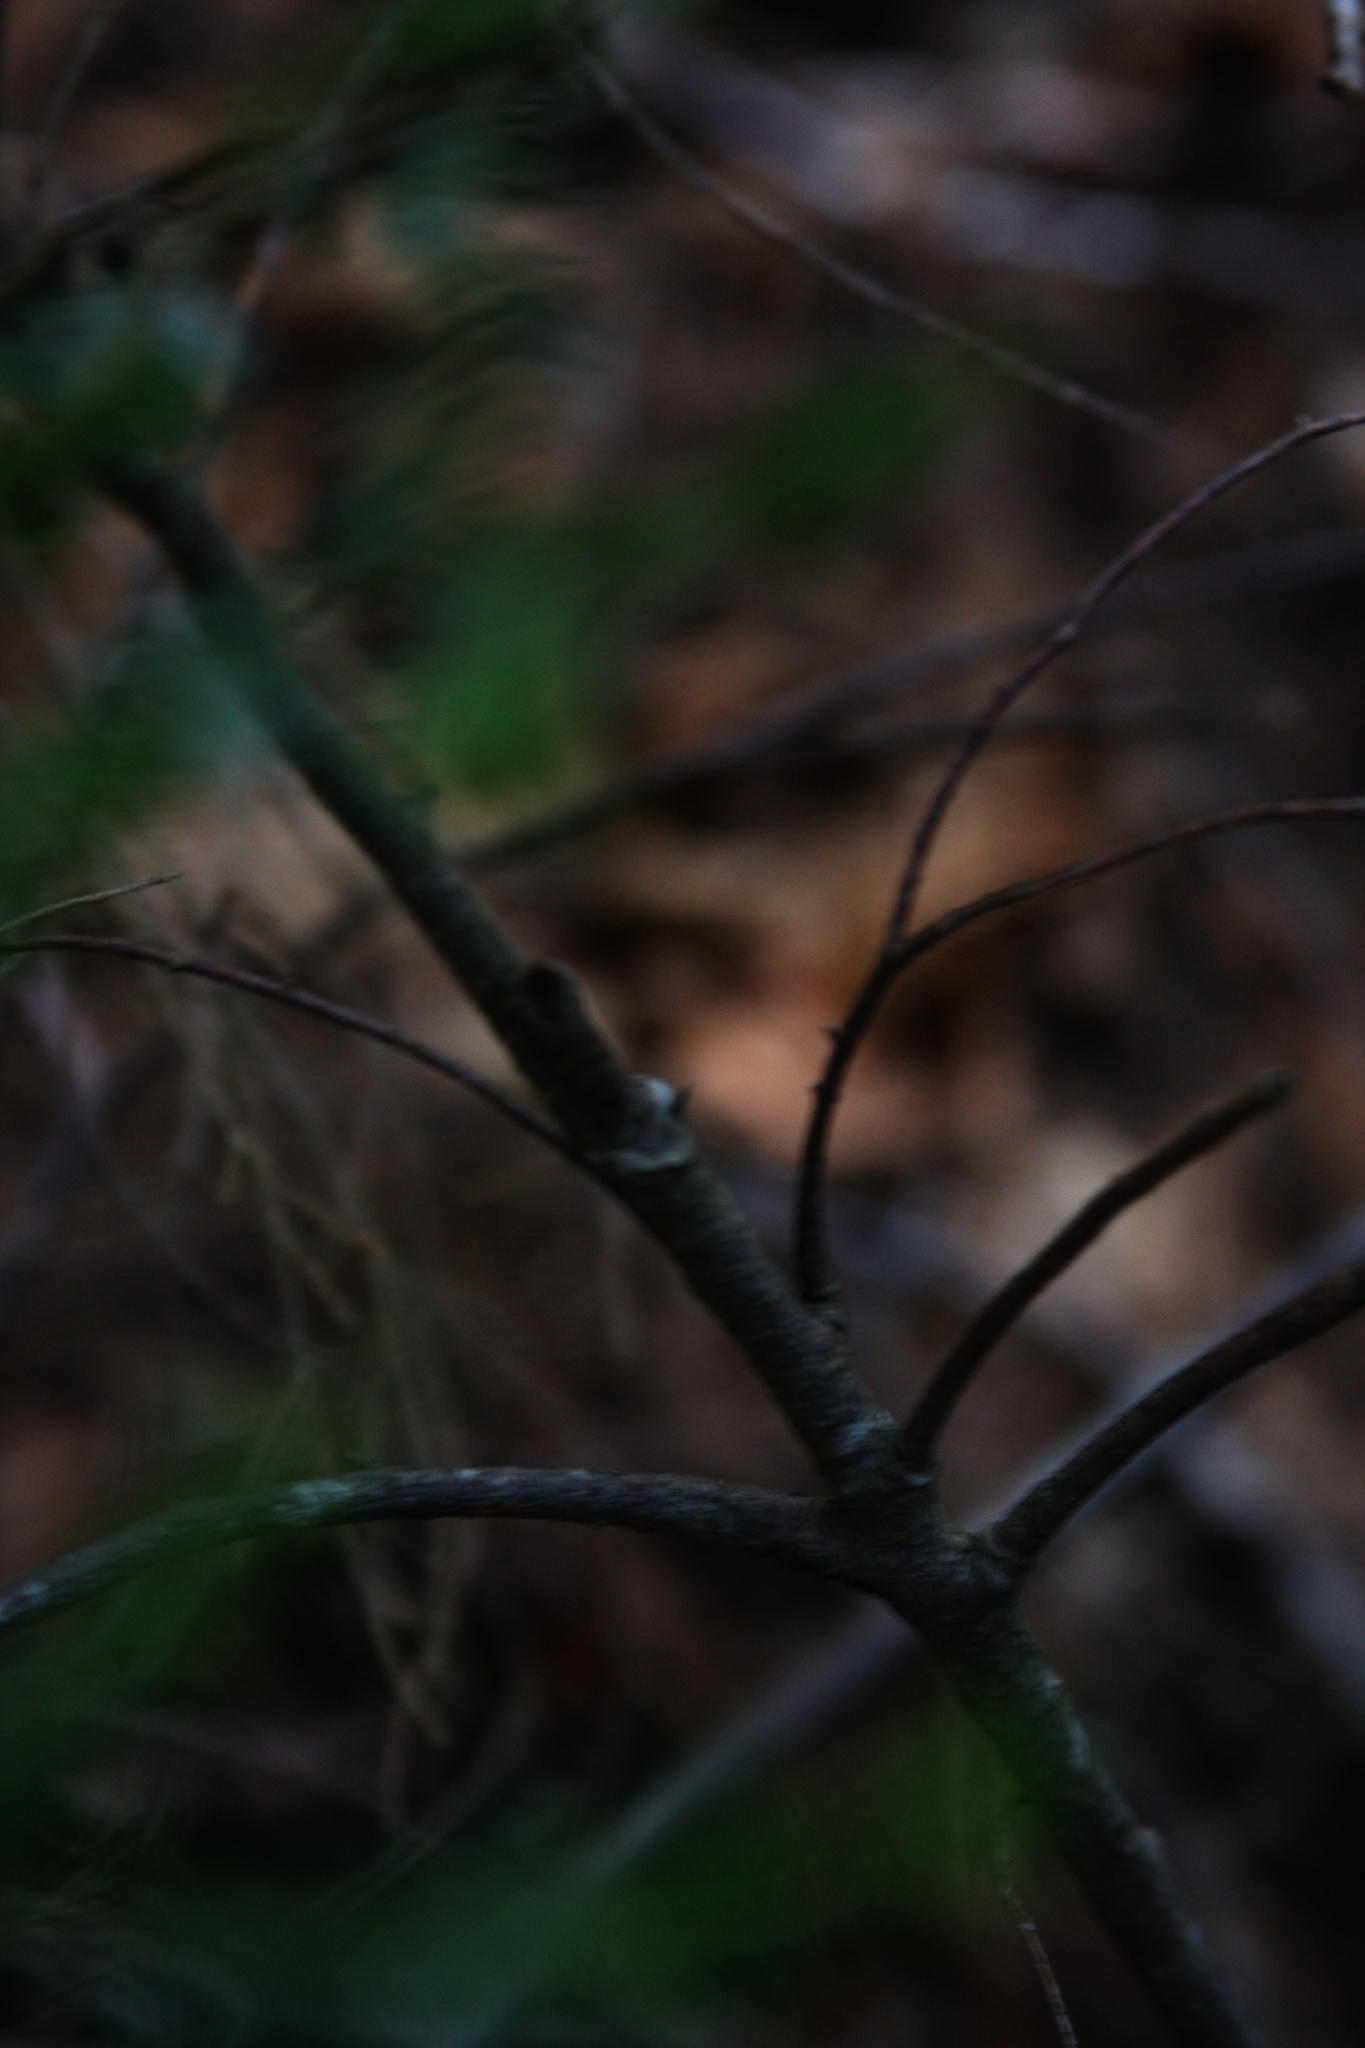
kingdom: Plantae
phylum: Tracheophyta
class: Pinopsida
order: Pinales
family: Pinaceae
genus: Tsuga
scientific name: Tsuga canadensis
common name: Eastern hemlock
